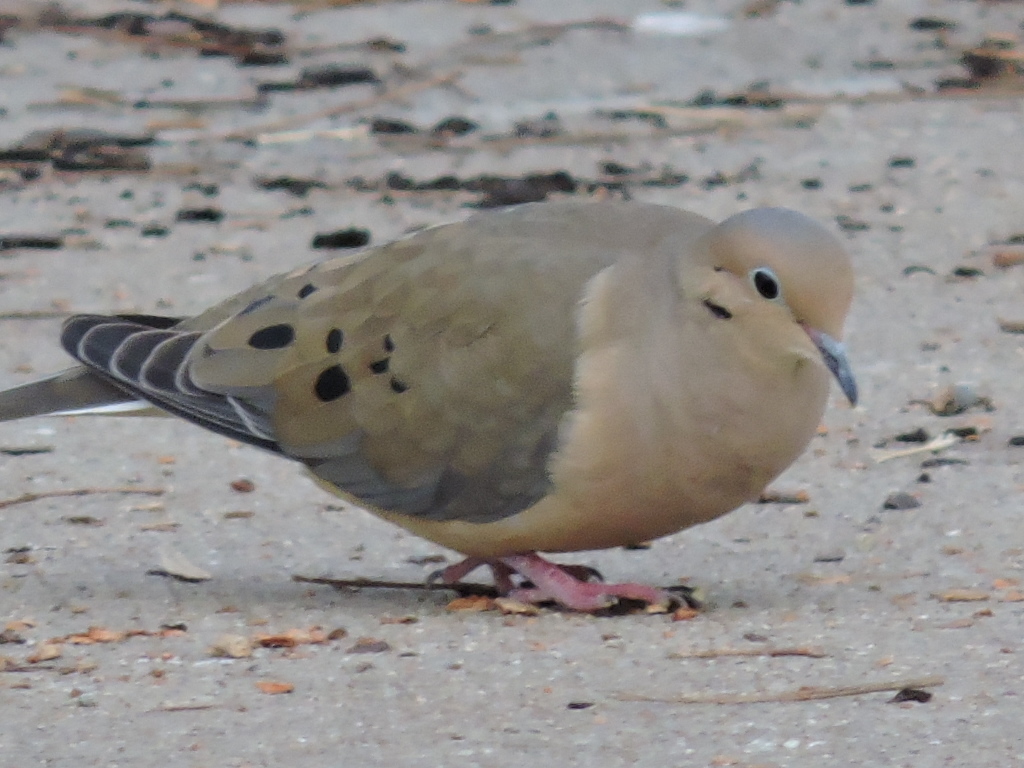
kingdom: Animalia
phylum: Chordata
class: Aves
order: Columbiformes
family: Columbidae
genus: Zenaida
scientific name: Zenaida macroura
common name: Mourning dove
